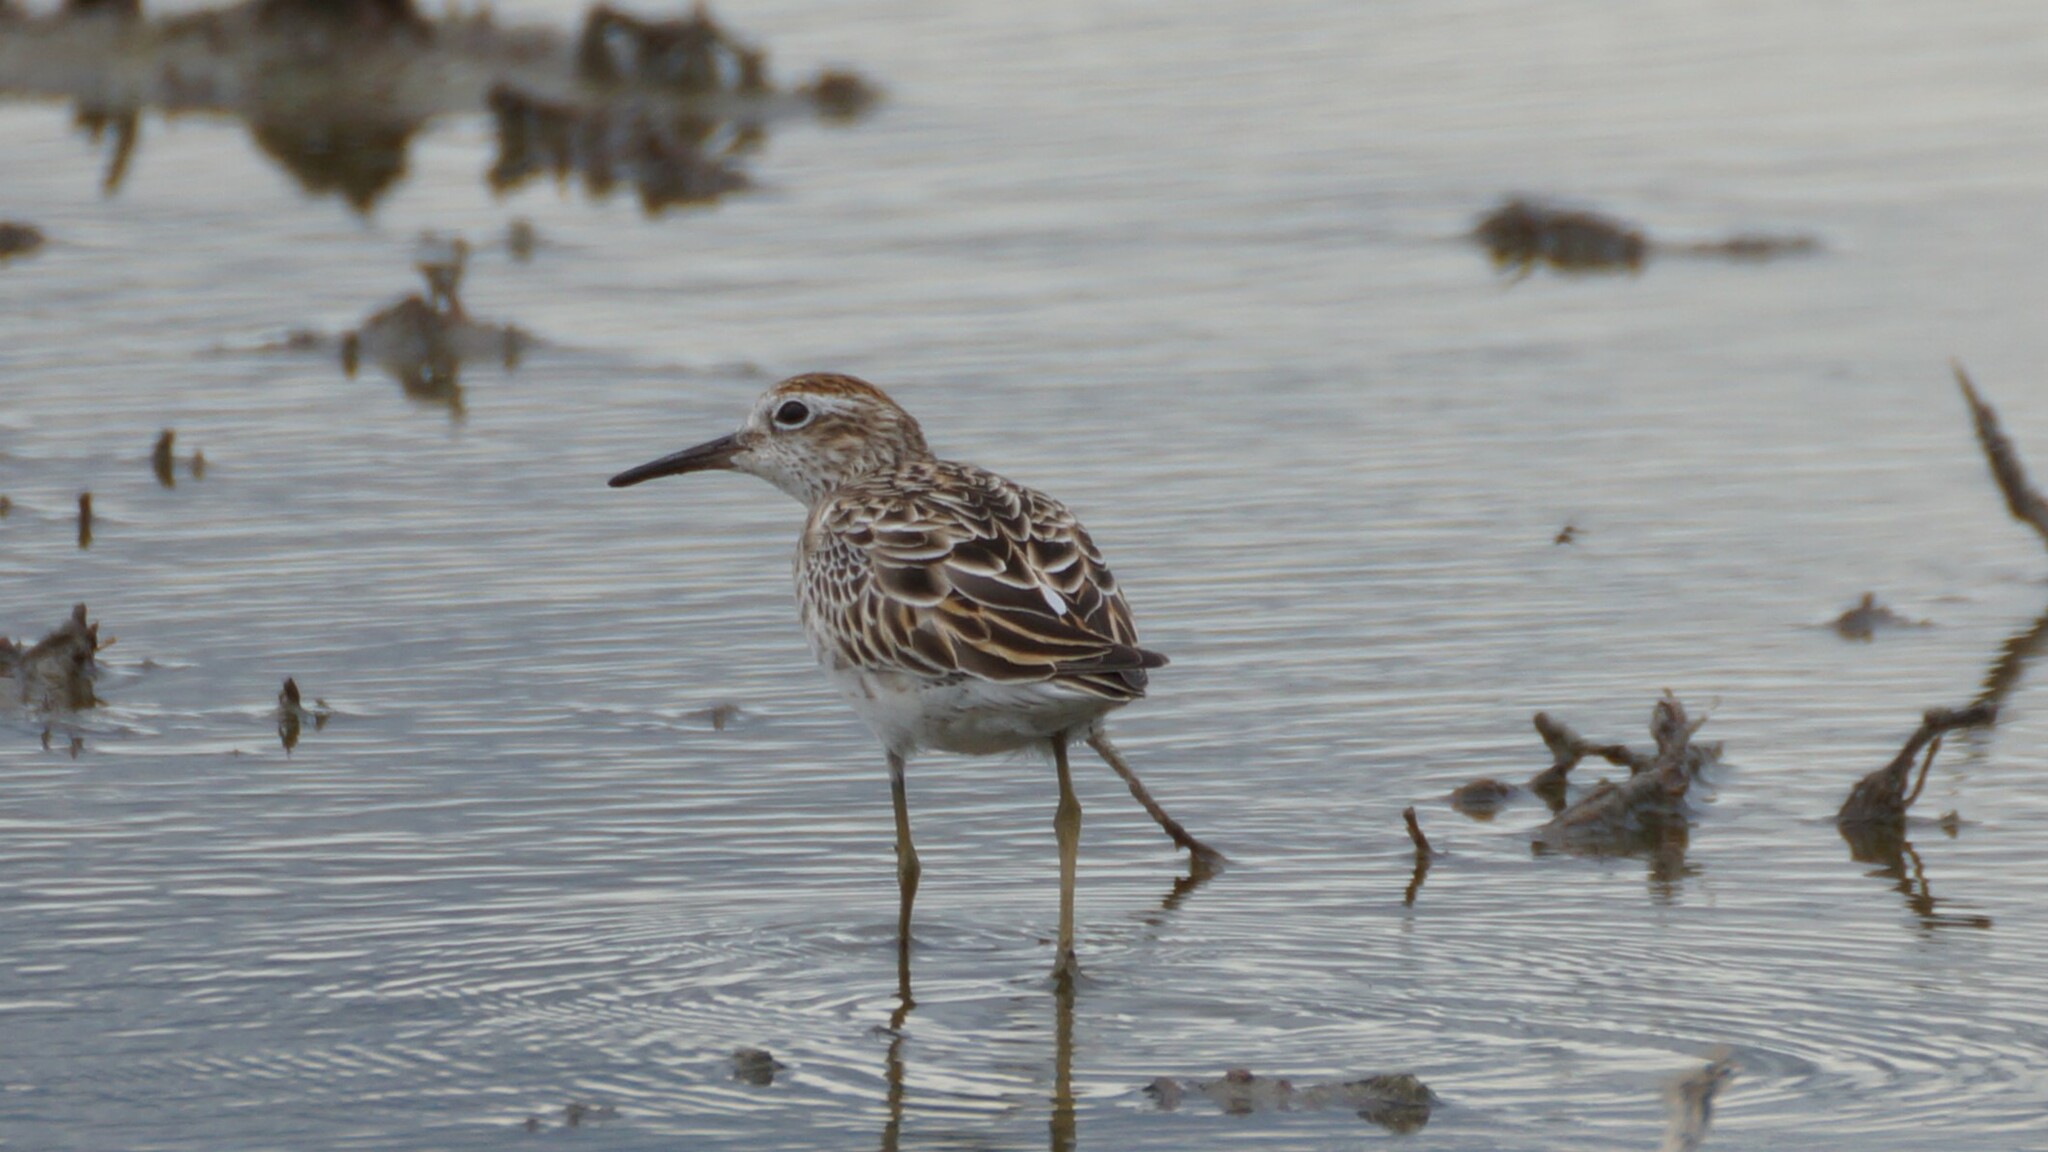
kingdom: Animalia
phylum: Chordata
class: Aves
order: Charadriiformes
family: Scolopacidae
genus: Calidris
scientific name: Calidris acuminata
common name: Sharp-tailed sandpiper
